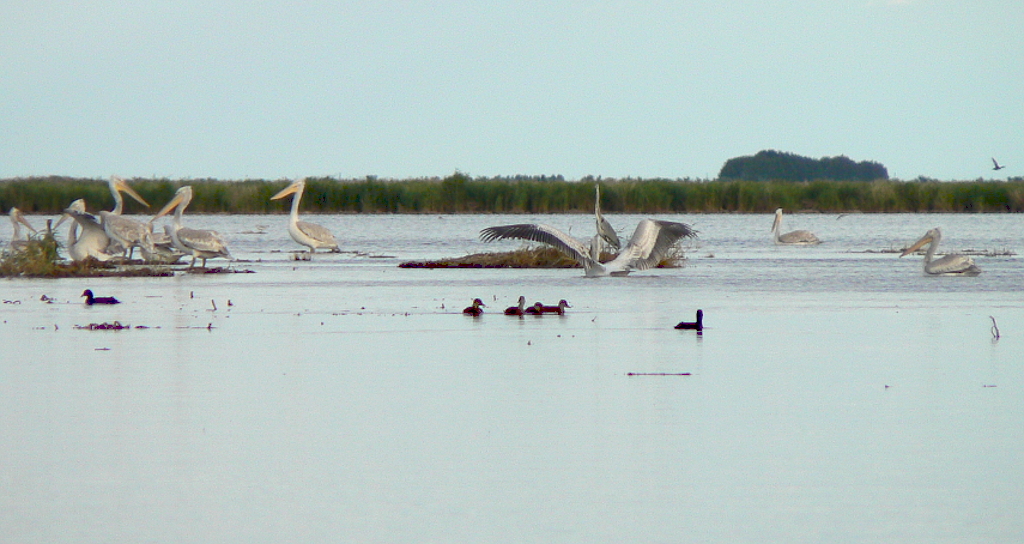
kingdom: Animalia
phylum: Chordata
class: Aves
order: Pelecaniformes
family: Pelecanidae
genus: Pelecanus
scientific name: Pelecanus crispus
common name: Dalmatian pelican
